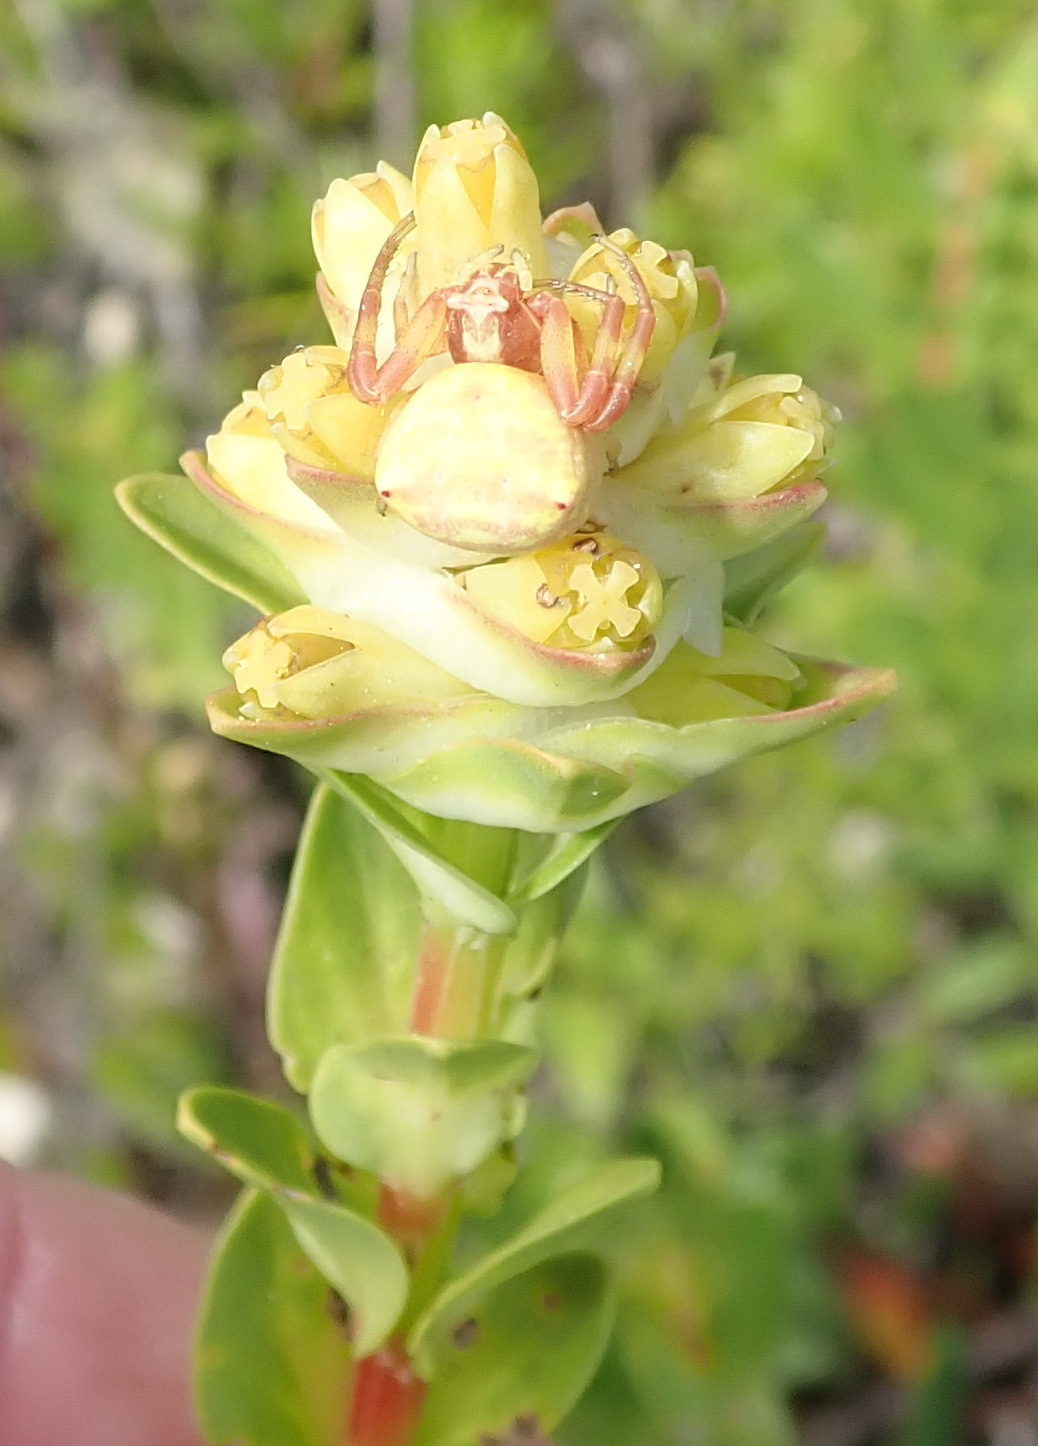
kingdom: Plantae
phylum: Tracheophyta
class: Magnoliopsida
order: Myrtales
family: Penaeaceae
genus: Penaea
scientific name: Penaea cneorum
